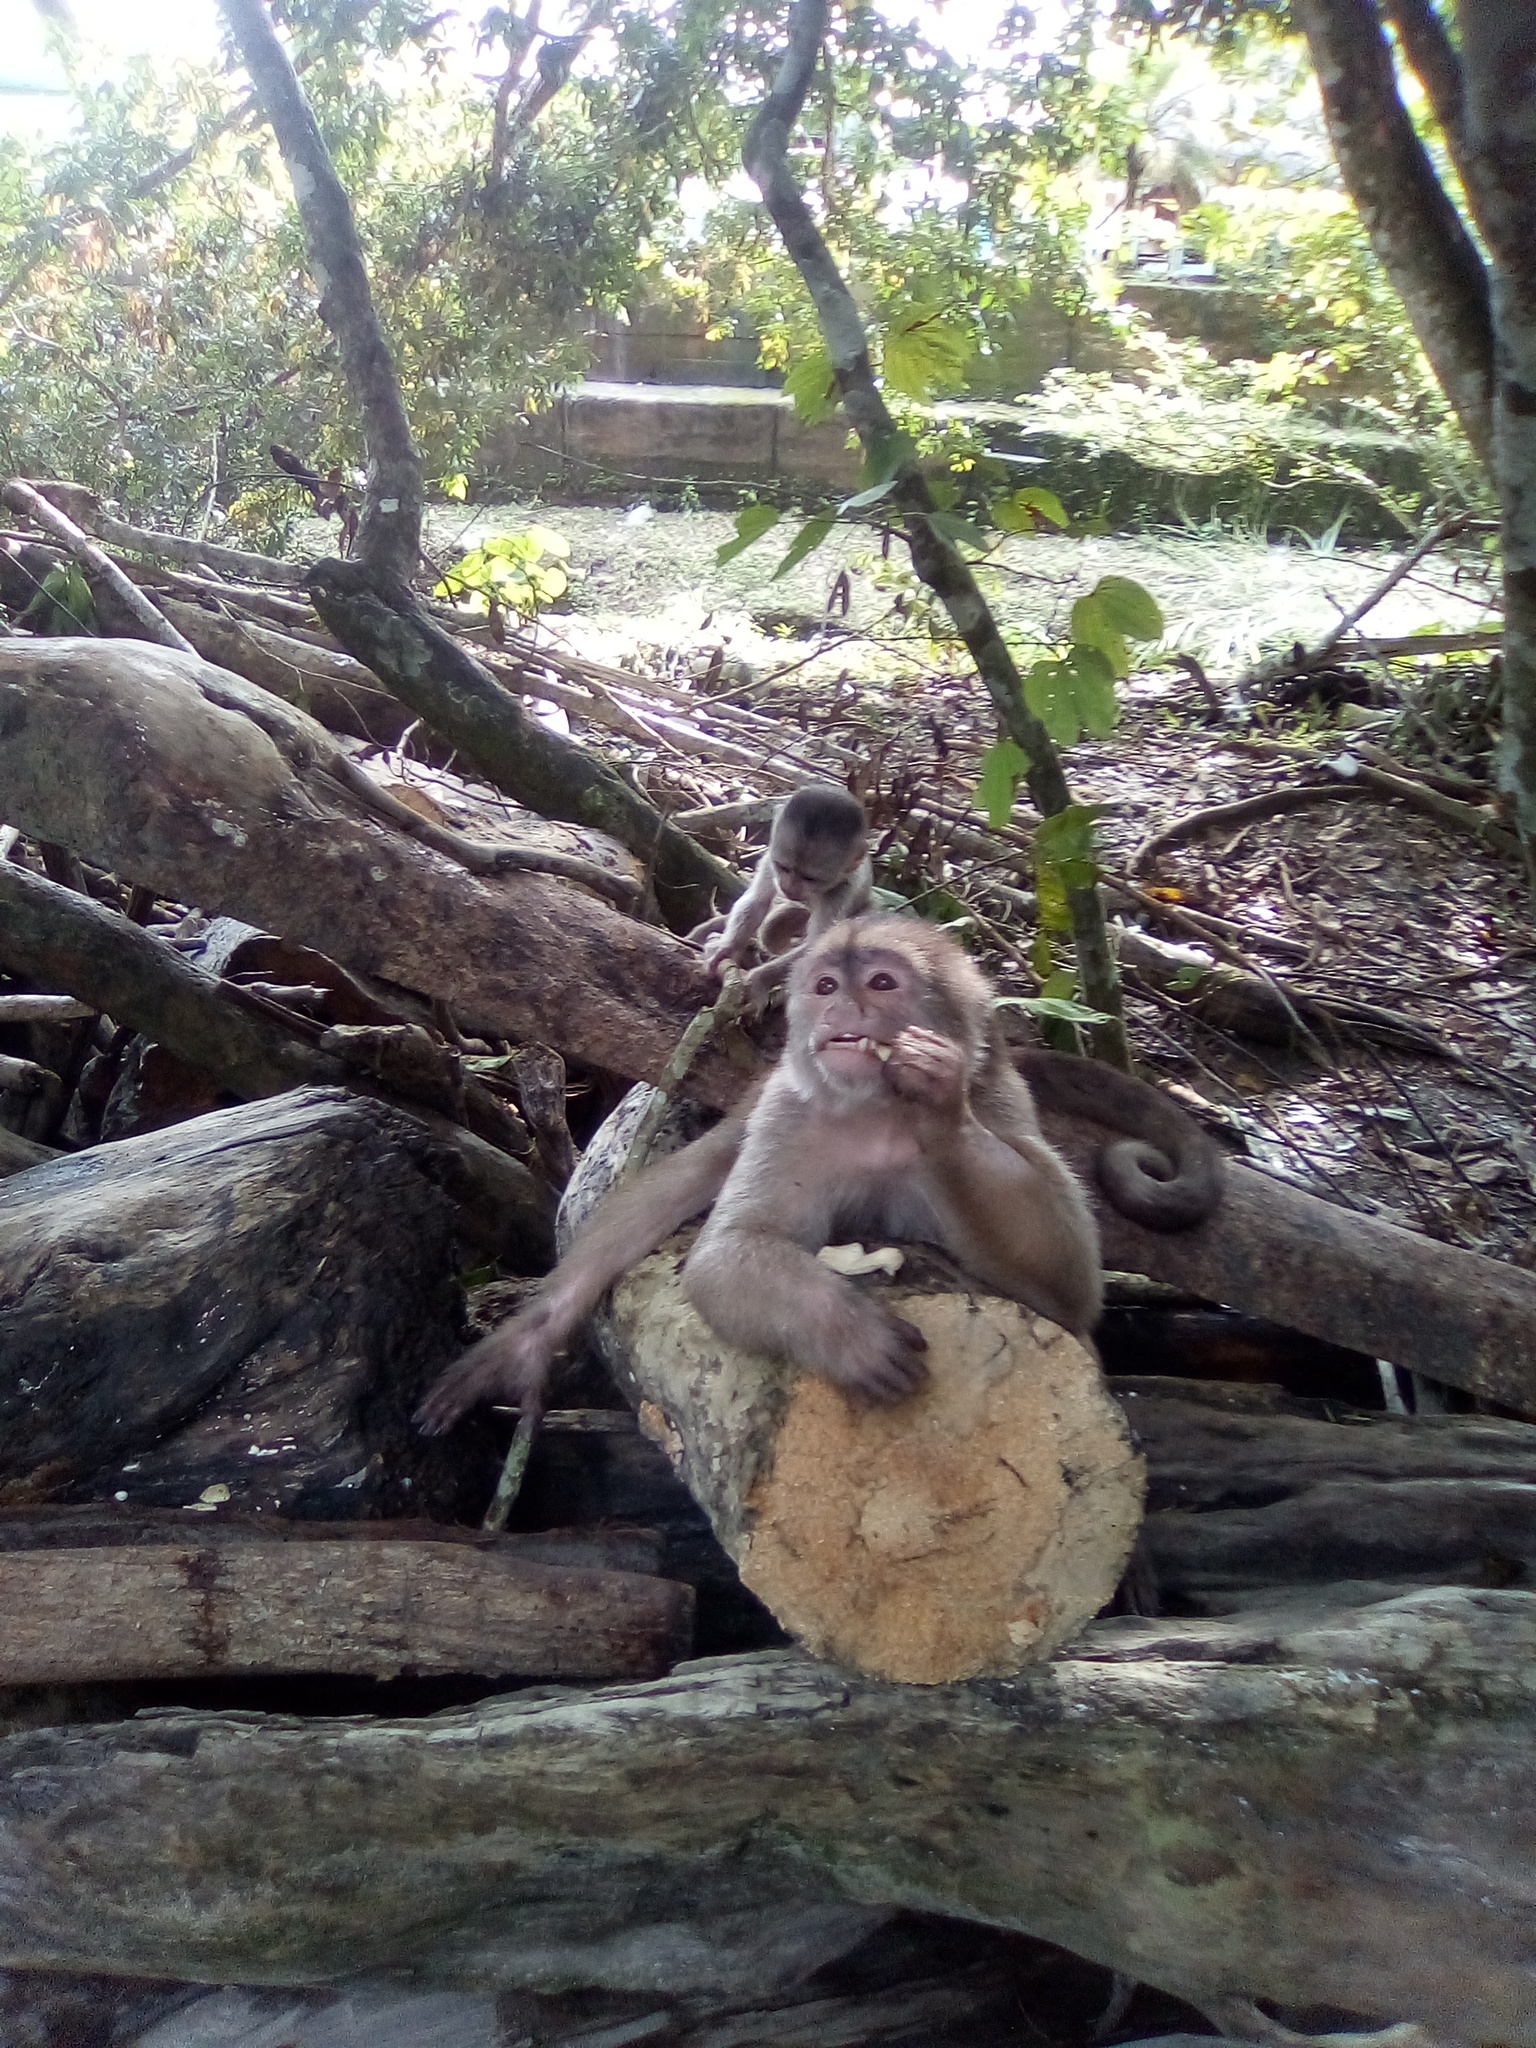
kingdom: Animalia
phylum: Chordata
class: Mammalia
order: Primates
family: Cebidae
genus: Cebus
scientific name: Cebus yuracus
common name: Peruvian white-fronted capuchin
